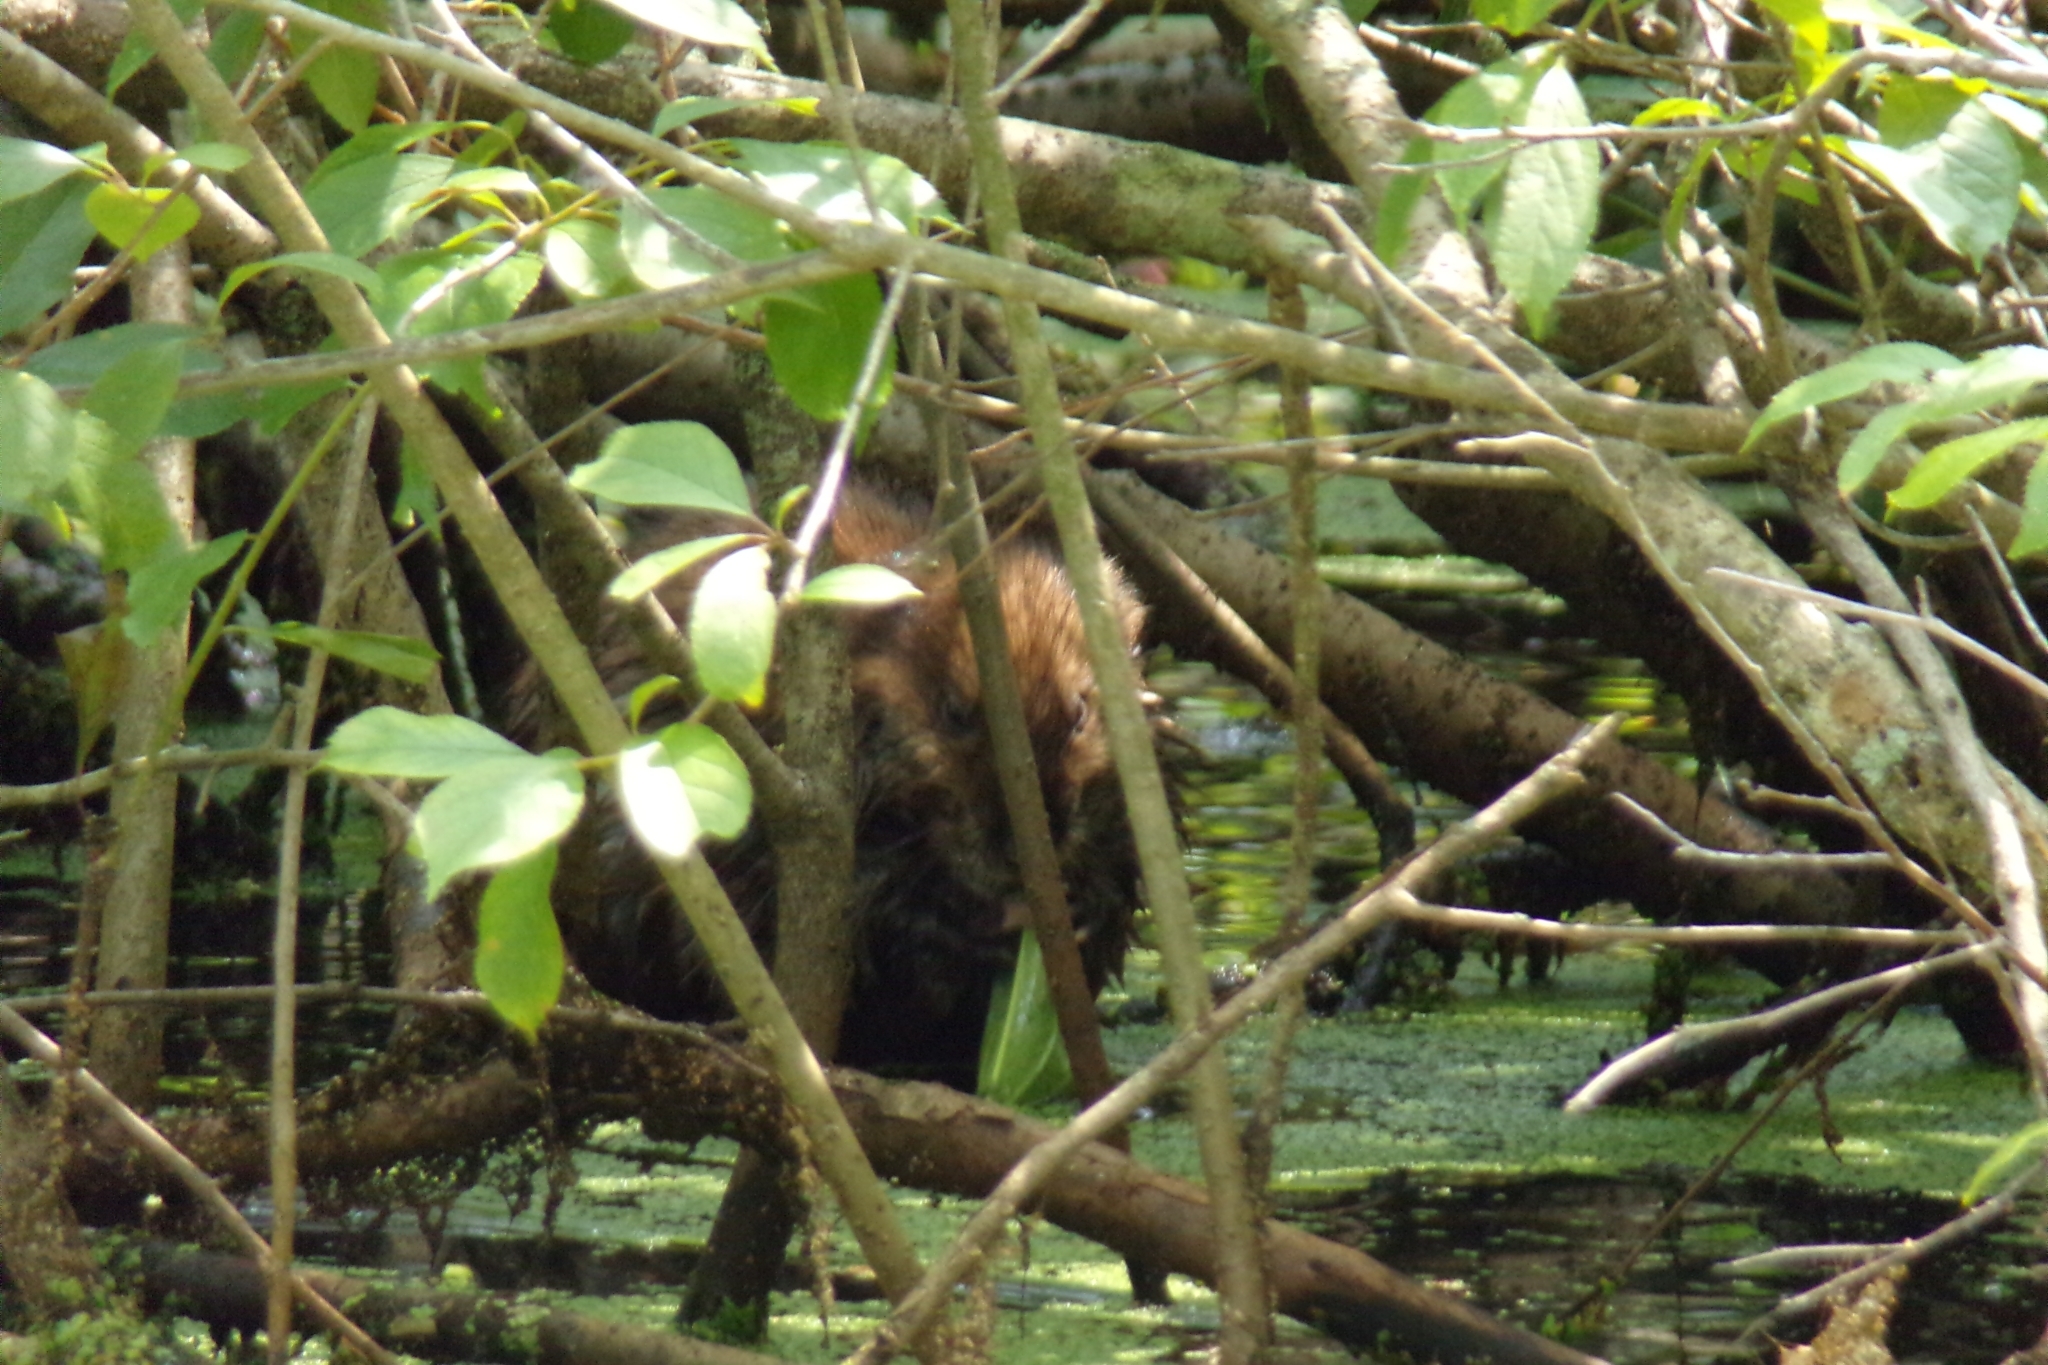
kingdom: Animalia
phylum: Chordata
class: Mammalia
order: Rodentia
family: Cricetidae
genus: Ondatra
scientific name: Ondatra zibethicus
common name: Muskrat
